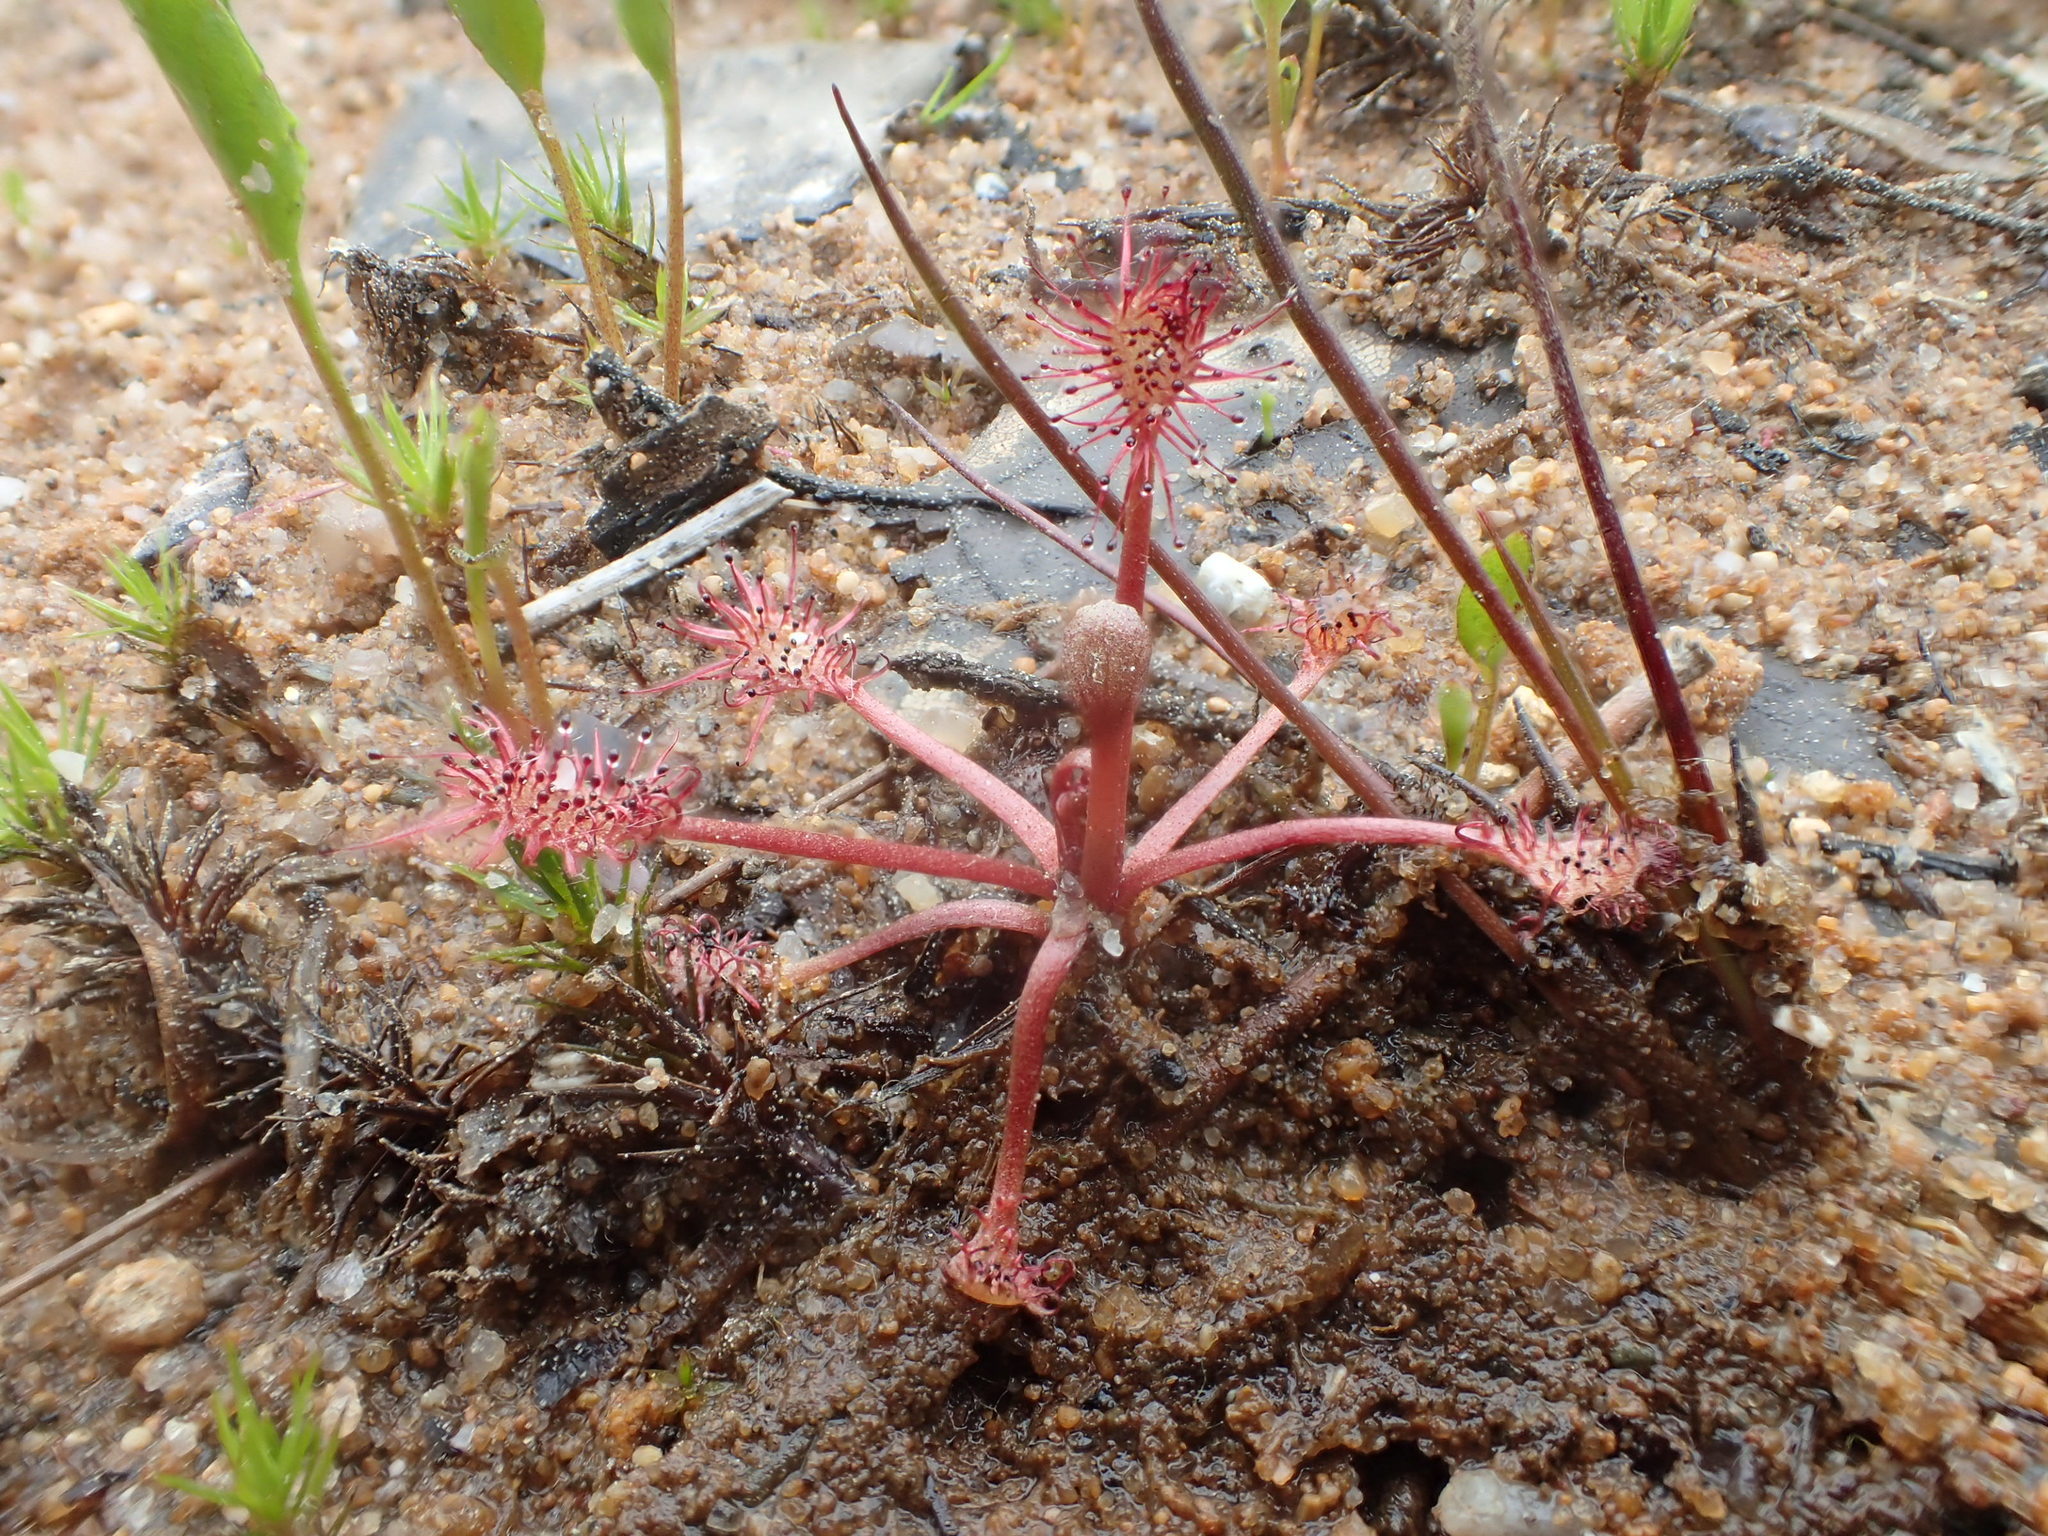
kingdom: Plantae
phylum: Tracheophyta
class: Magnoliopsida
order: Caryophyllales
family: Droseraceae
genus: Drosera
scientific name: Drosera intermedia
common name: Oblong-leaved sundew
